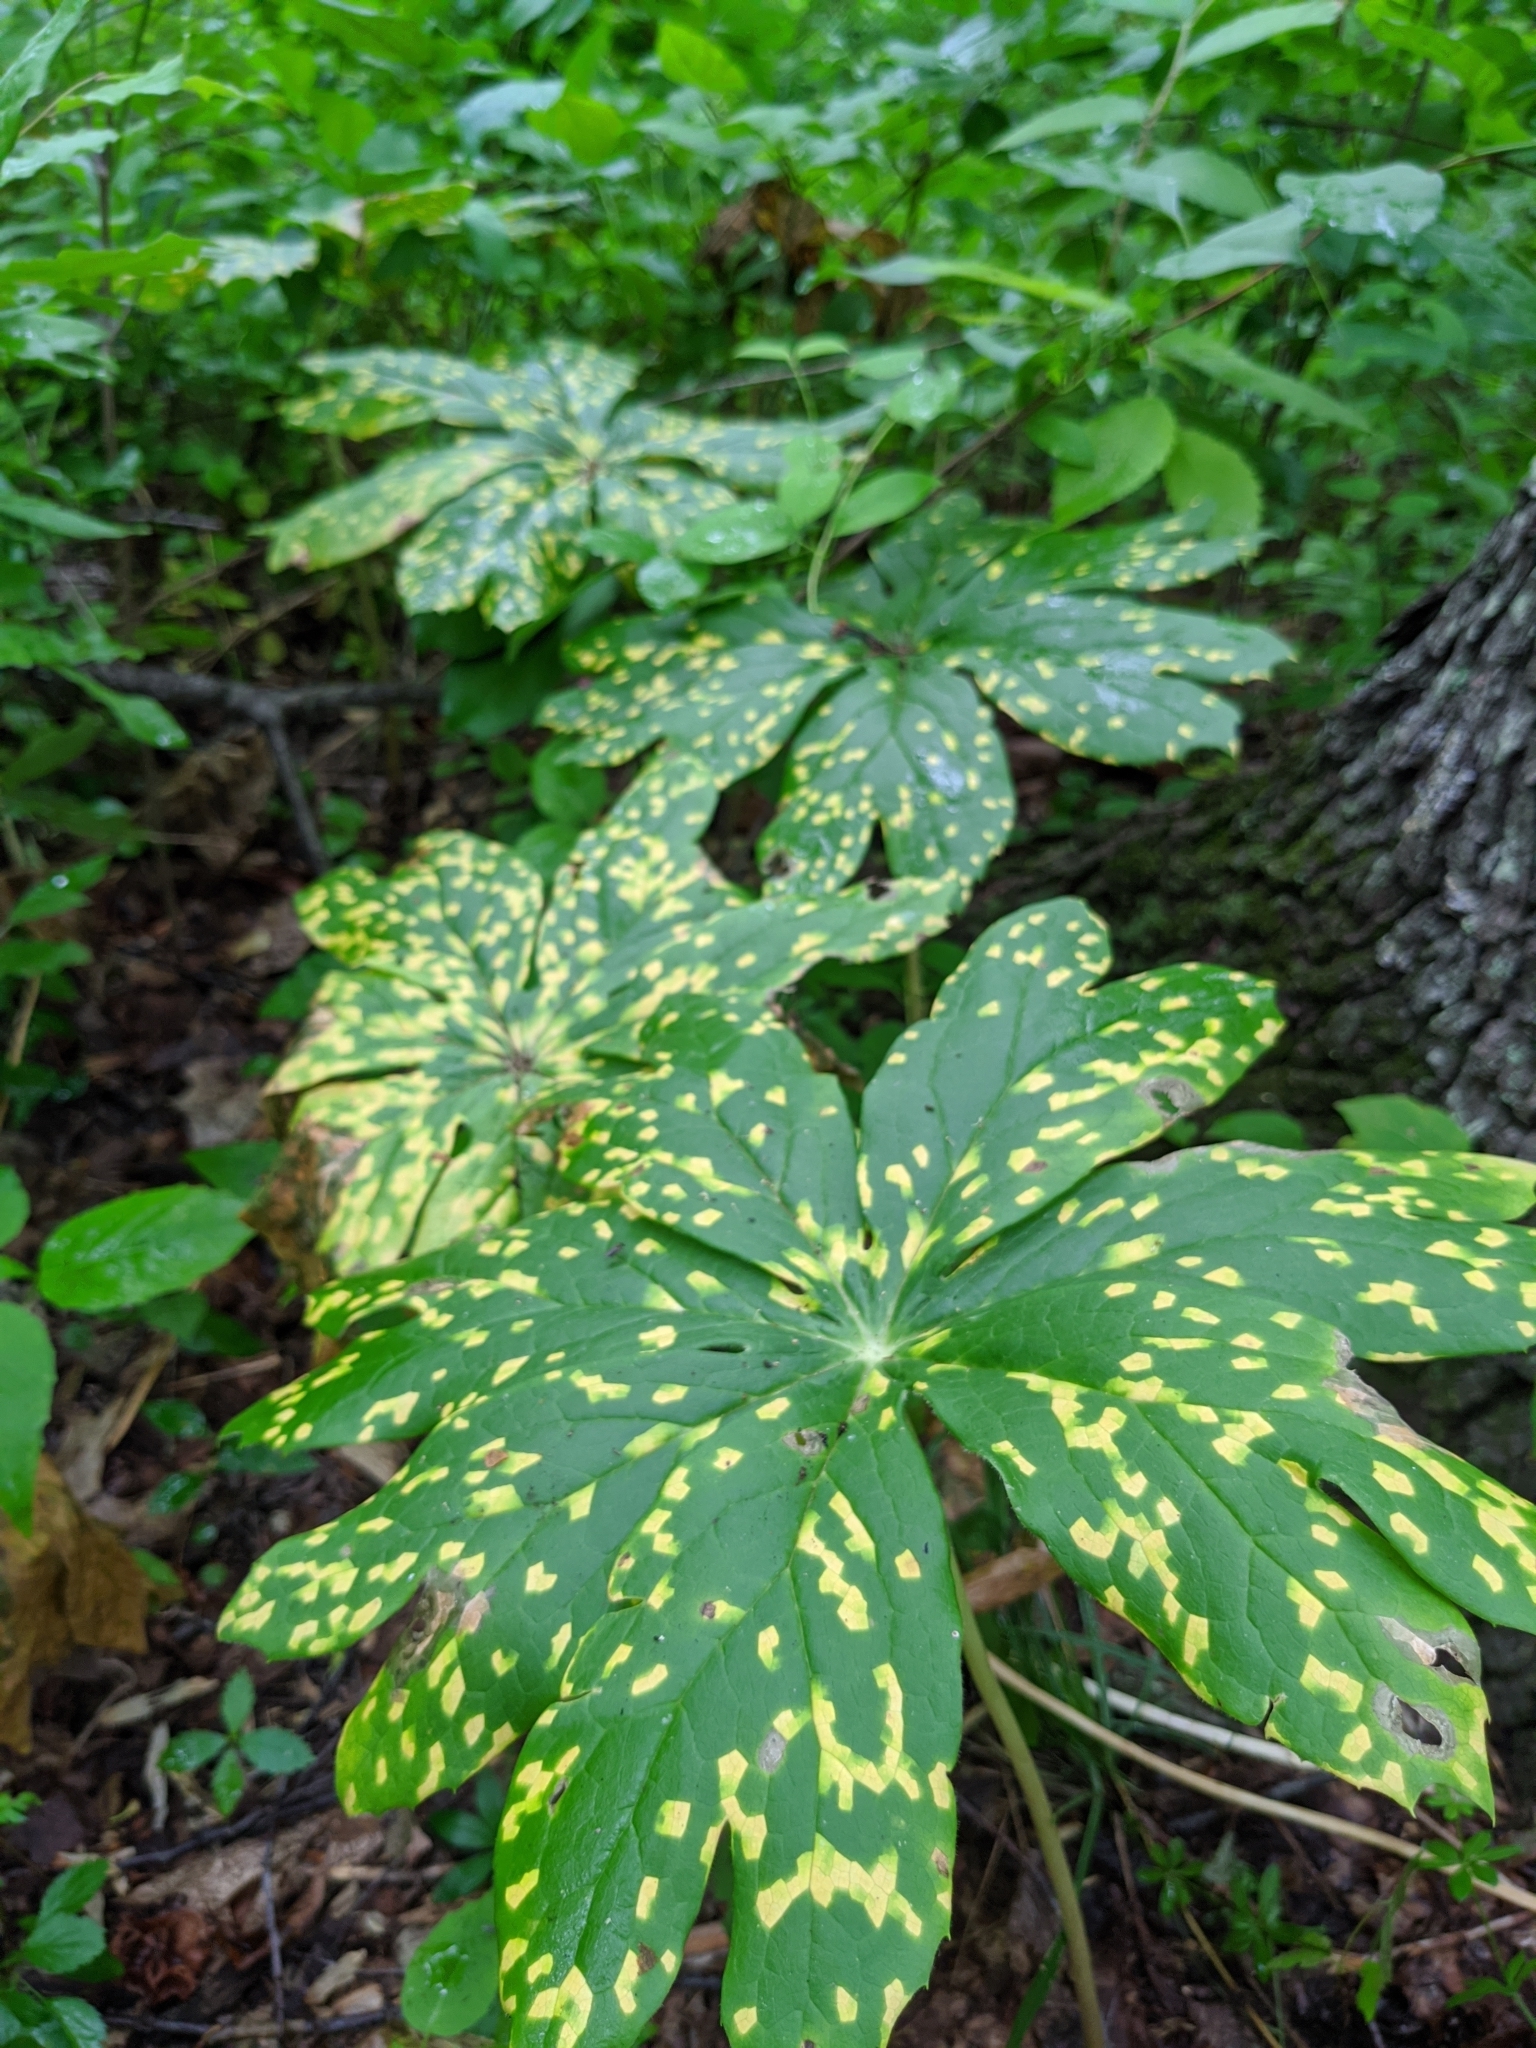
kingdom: Plantae
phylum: Tracheophyta
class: Magnoliopsida
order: Ranunculales
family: Berberidaceae
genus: Podophyllum
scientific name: Podophyllum peltatum
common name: Wild mandrake
